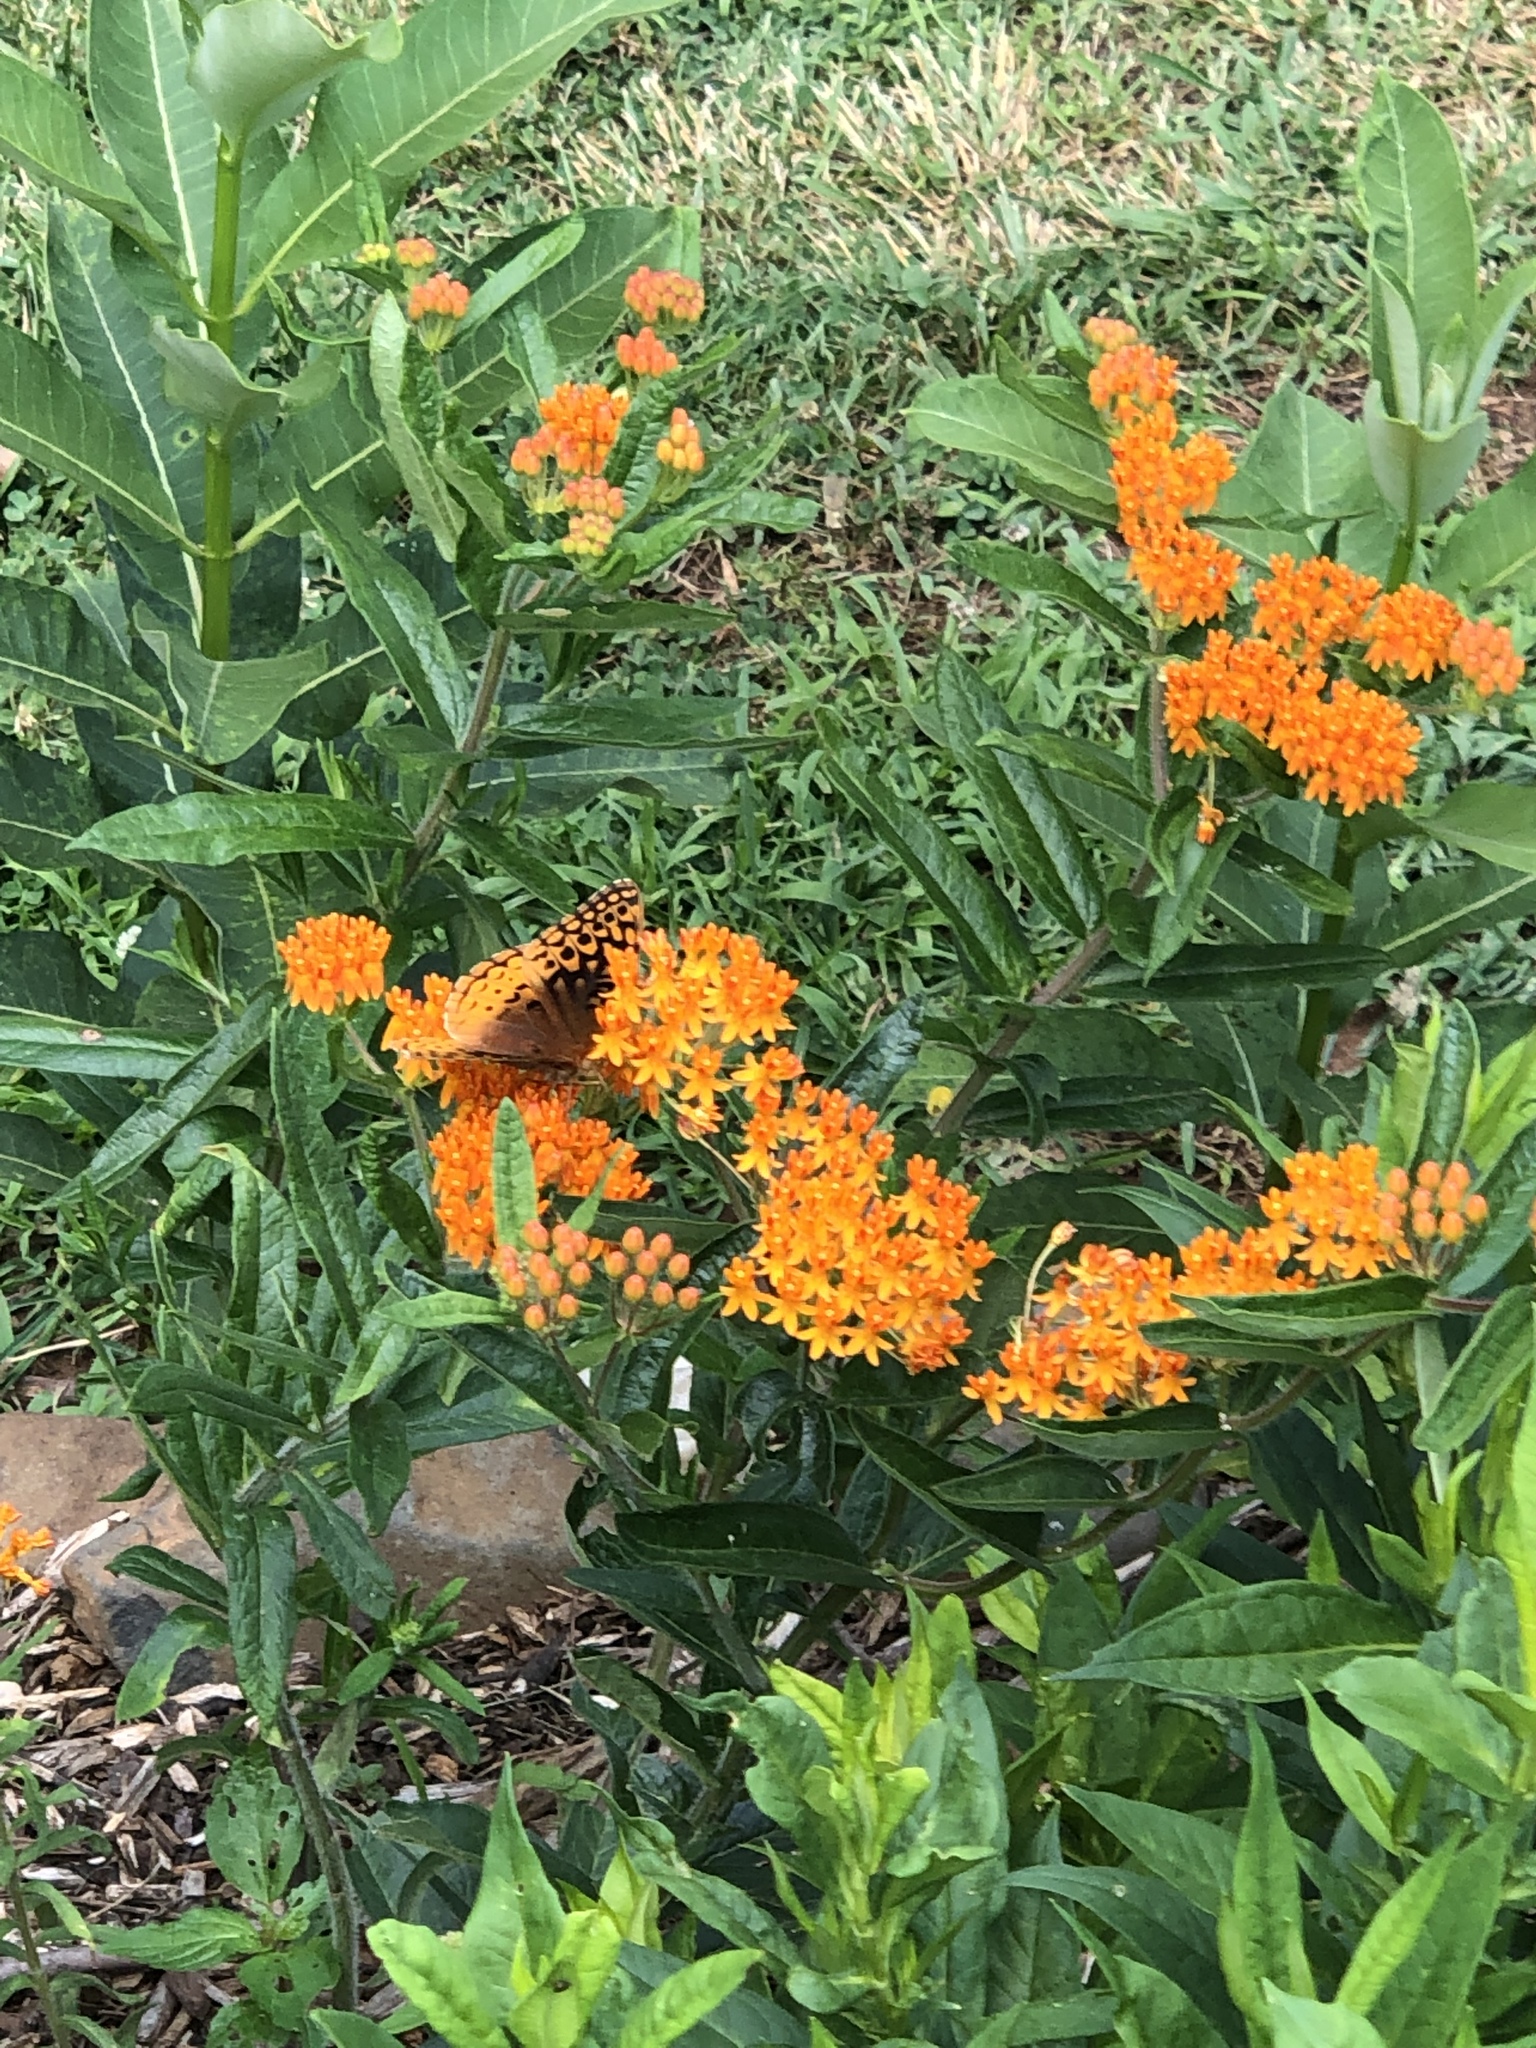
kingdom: Animalia
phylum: Arthropoda
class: Insecta
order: Lepidoptera
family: Nymphalidae
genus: Speyeria
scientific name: Speyeria cybele
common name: Great spangled fritillary
